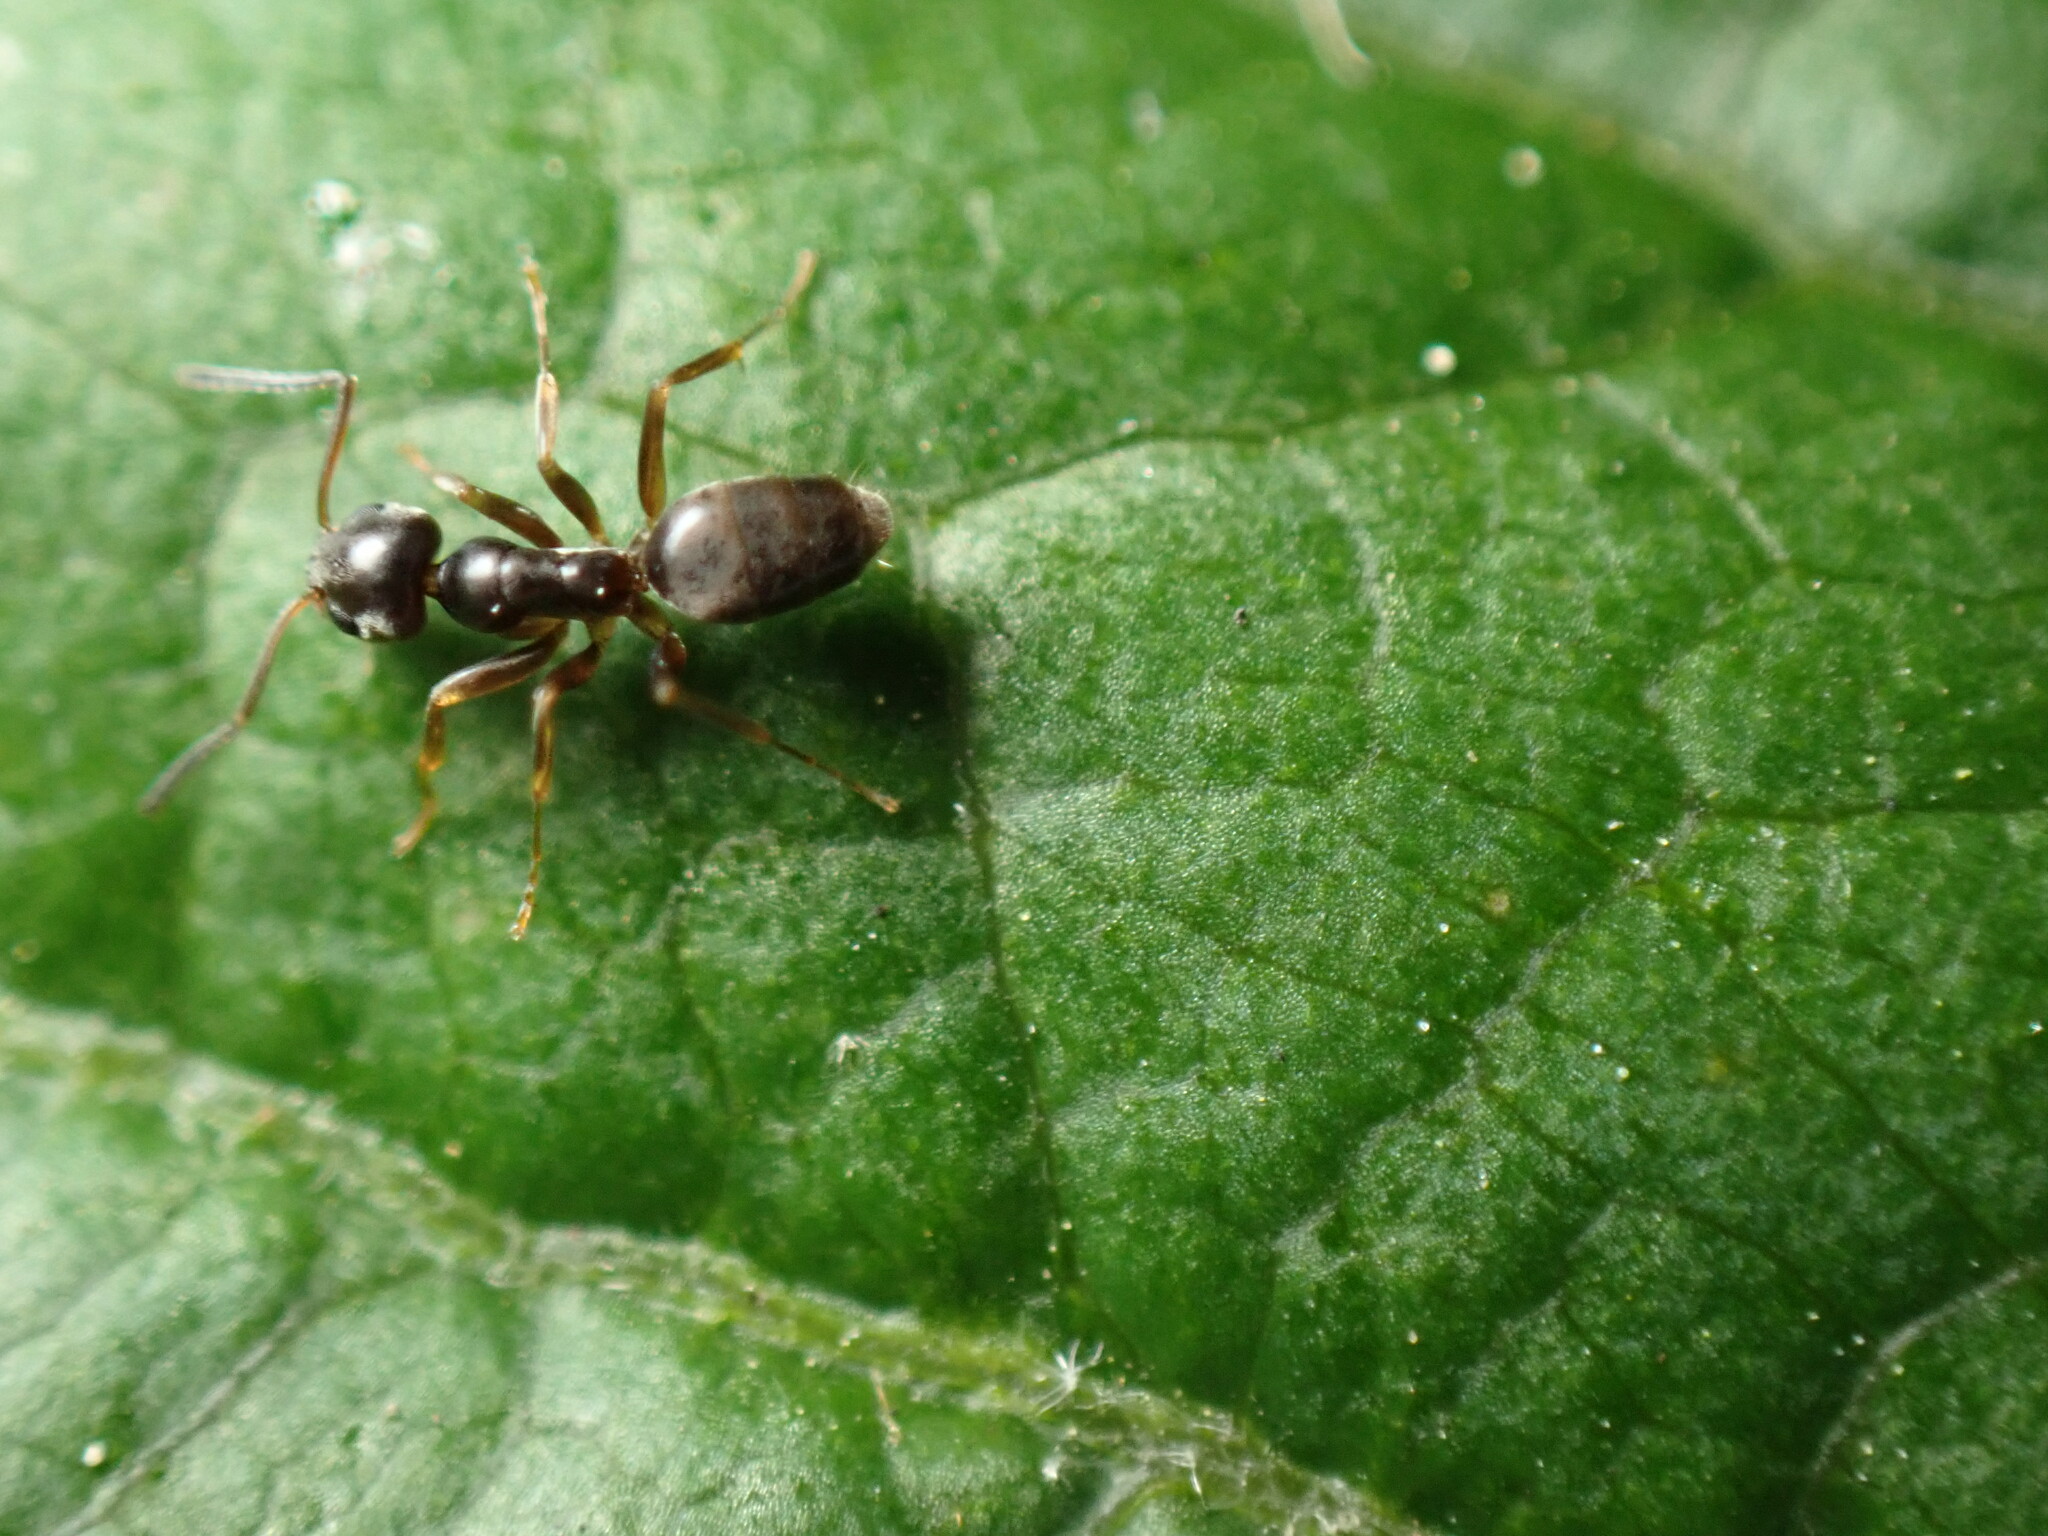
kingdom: Animalia
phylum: Arthropoda
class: Insecta
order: Hymenoptera
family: Formicidae
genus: Tapinoma
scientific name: Tapinoma sessile
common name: Odorous house ant
